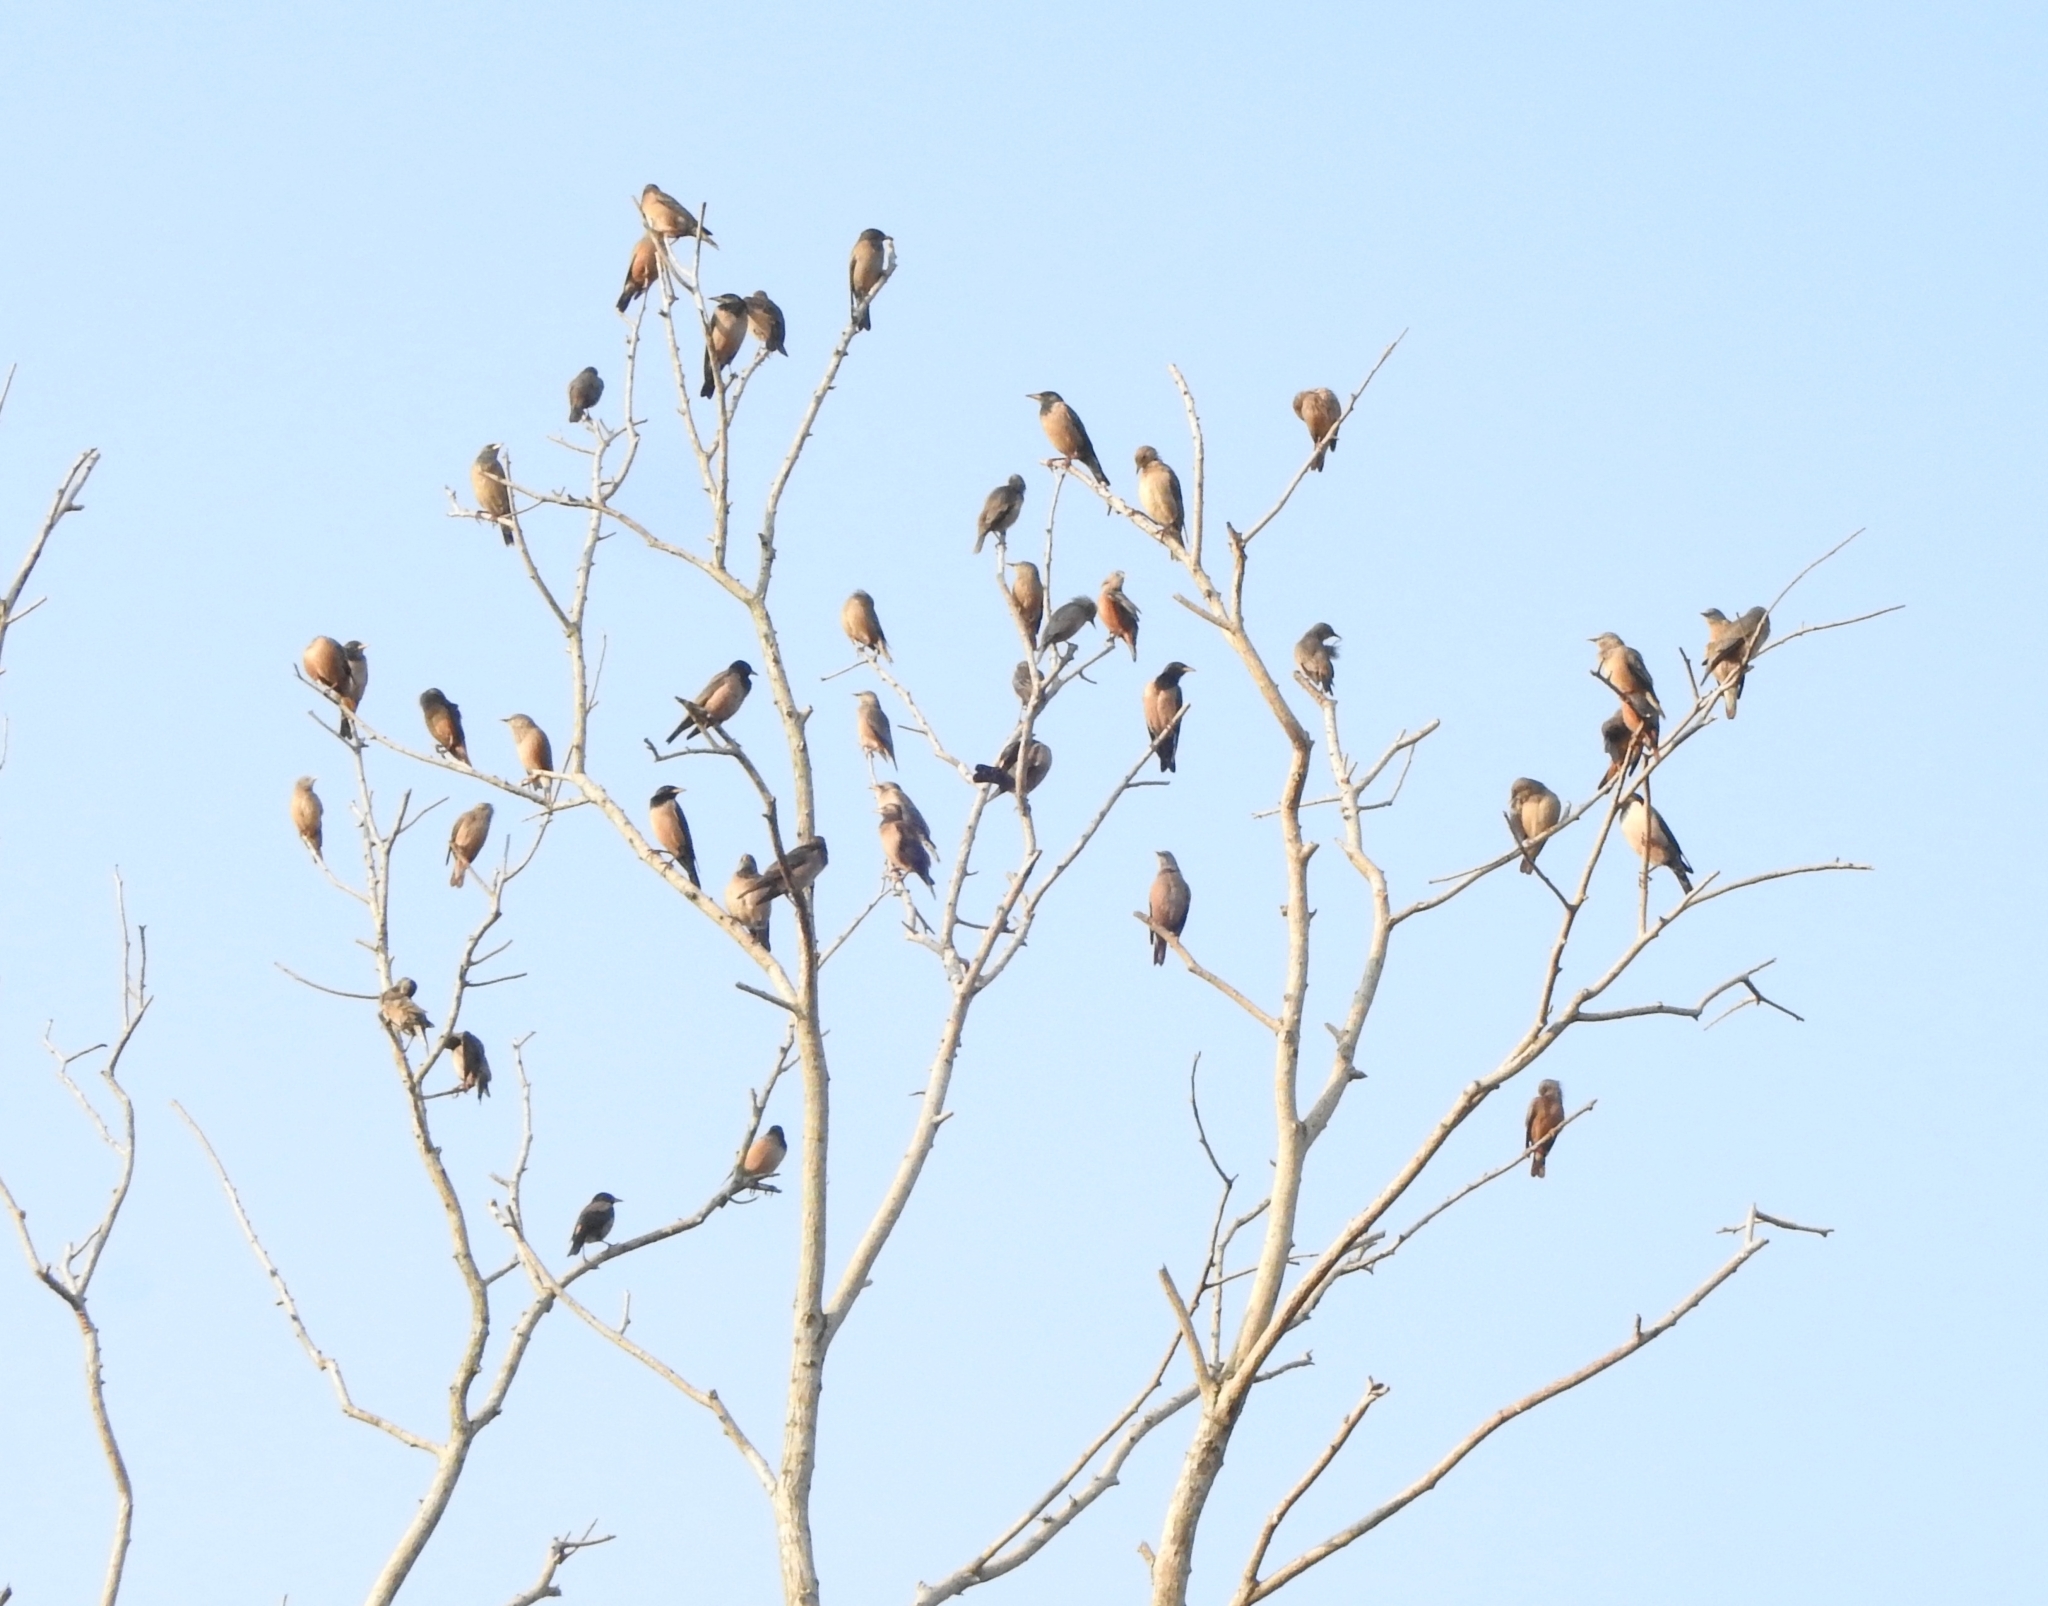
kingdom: Animalia
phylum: Chordata
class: Aves
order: Passeriformes
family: Sturnidae
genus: Pastor
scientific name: Pastor roseus
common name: Rosy starling
